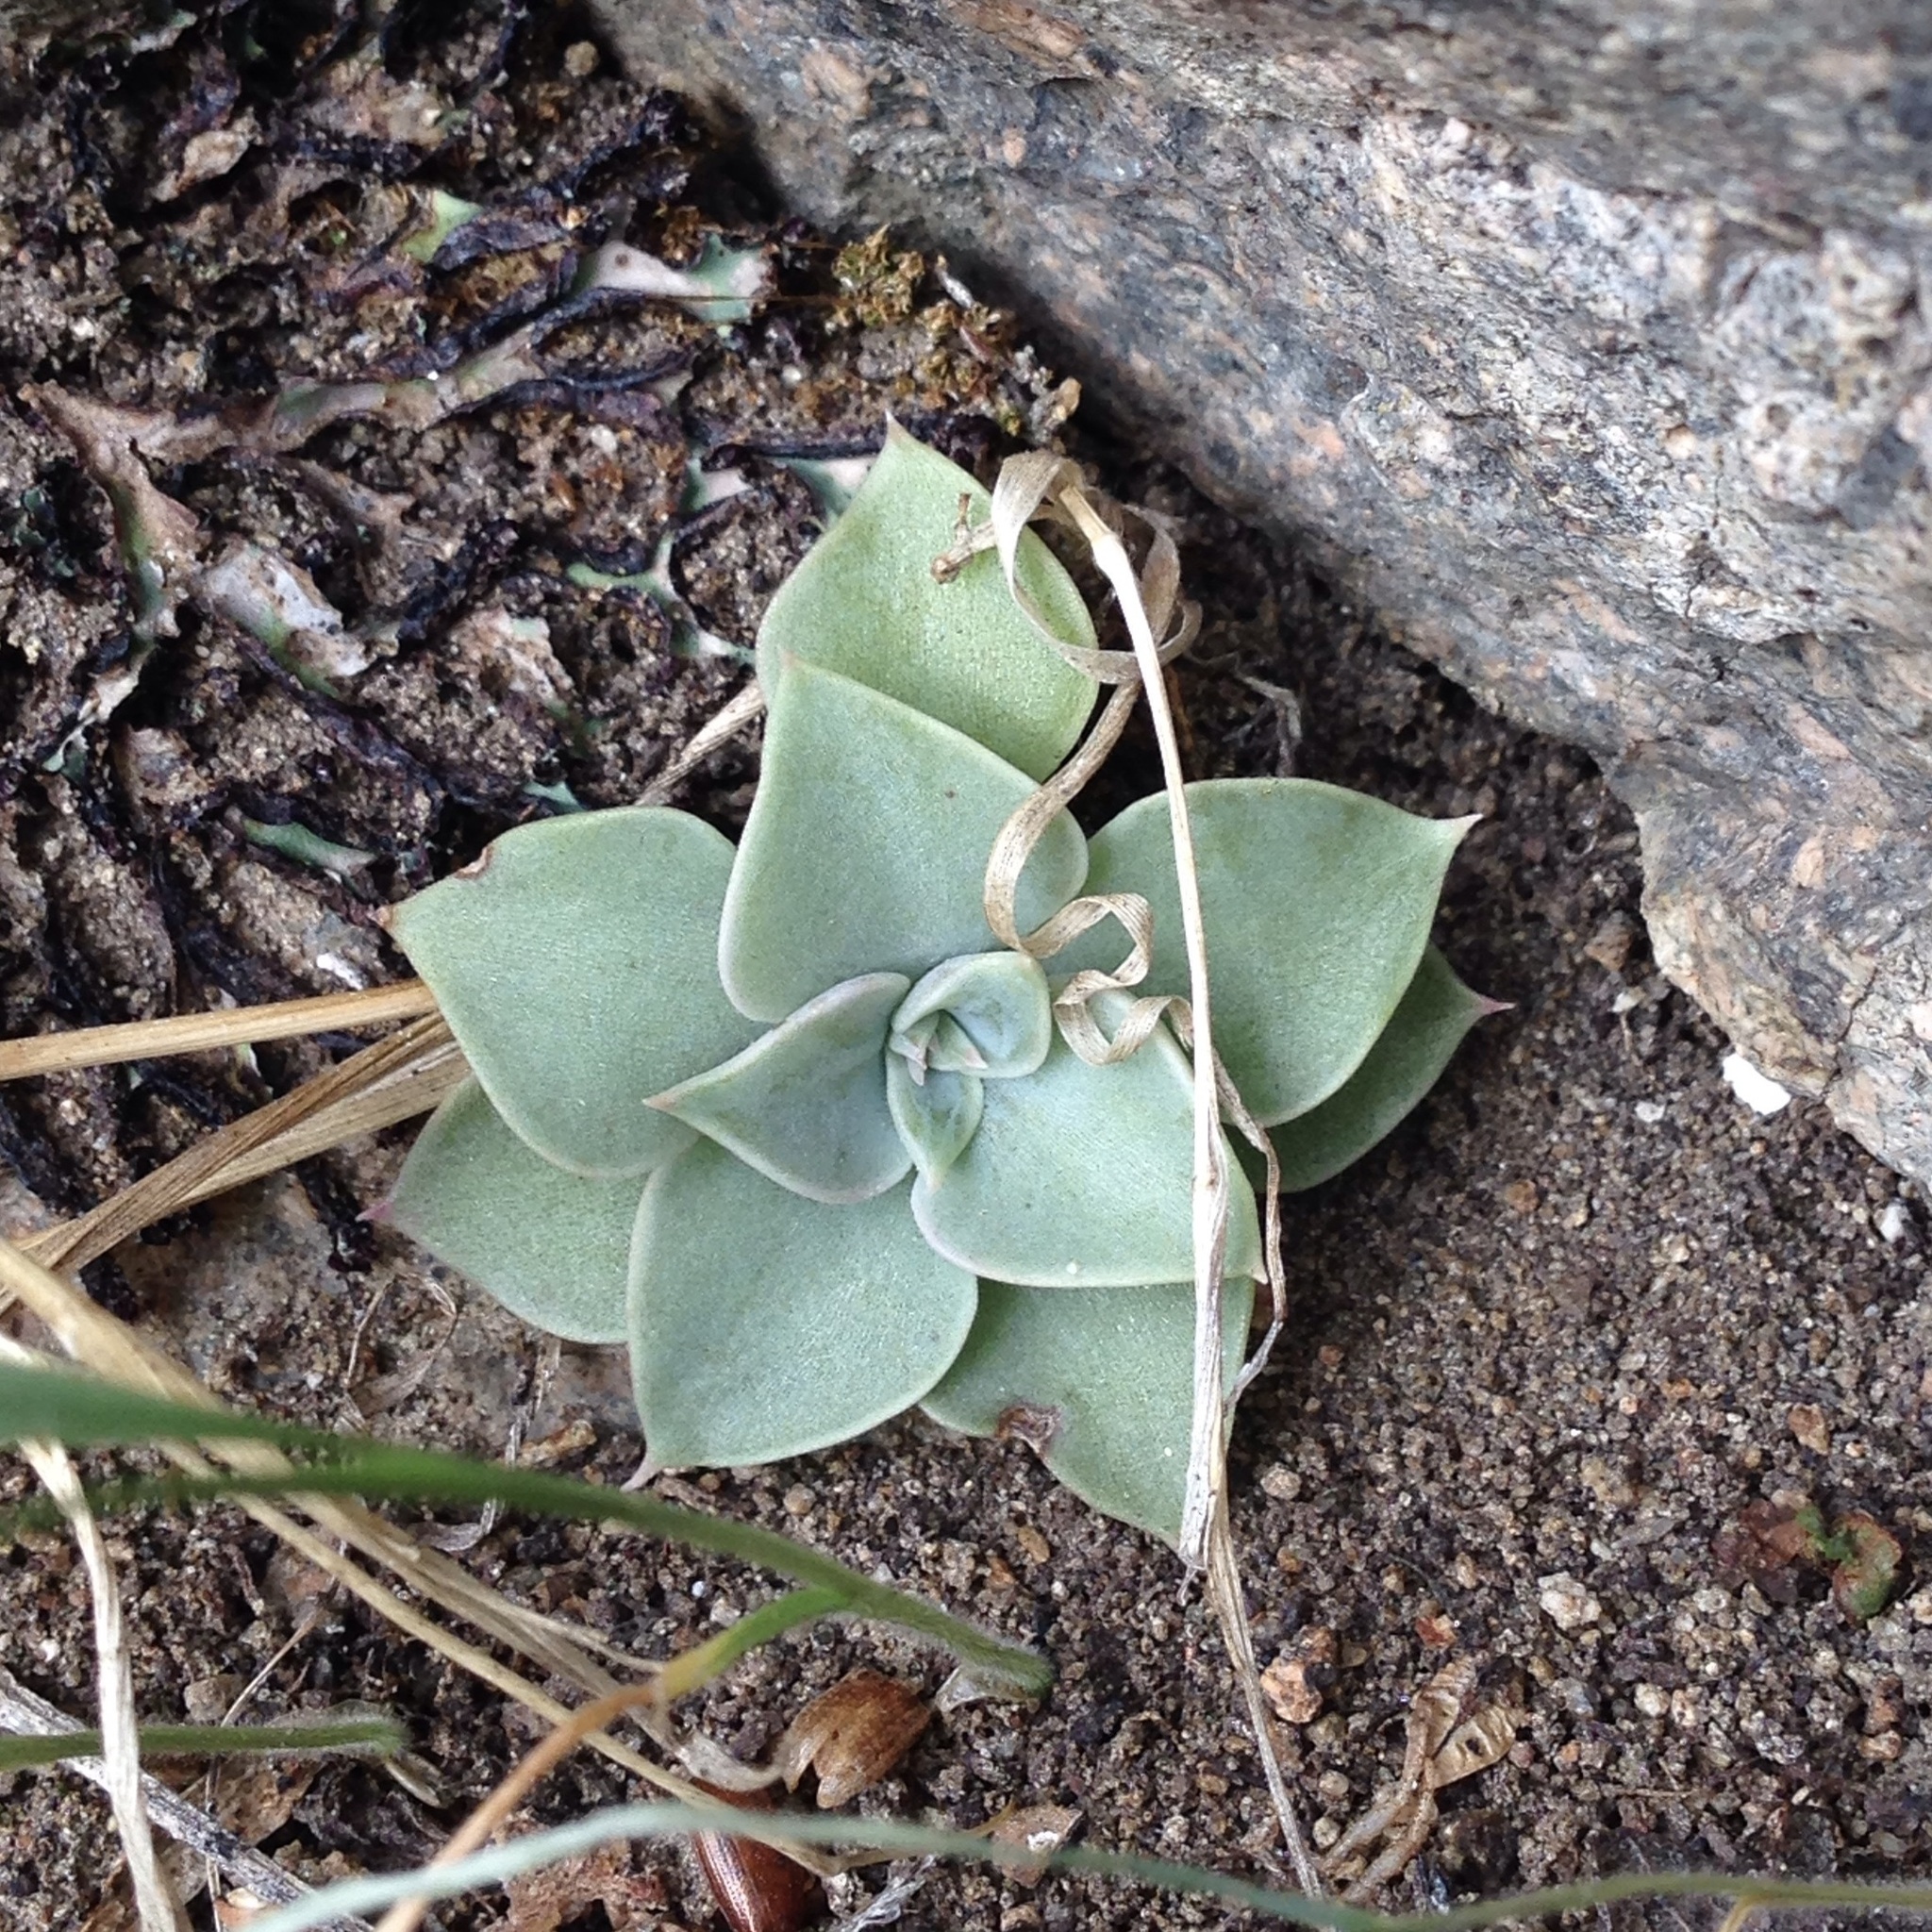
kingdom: Plantae
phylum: Tracheophyta
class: Magnoliopsida
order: Saxifragales
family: Crassulaceae
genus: Graptopetalum
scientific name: Graptopetalum bartramii
